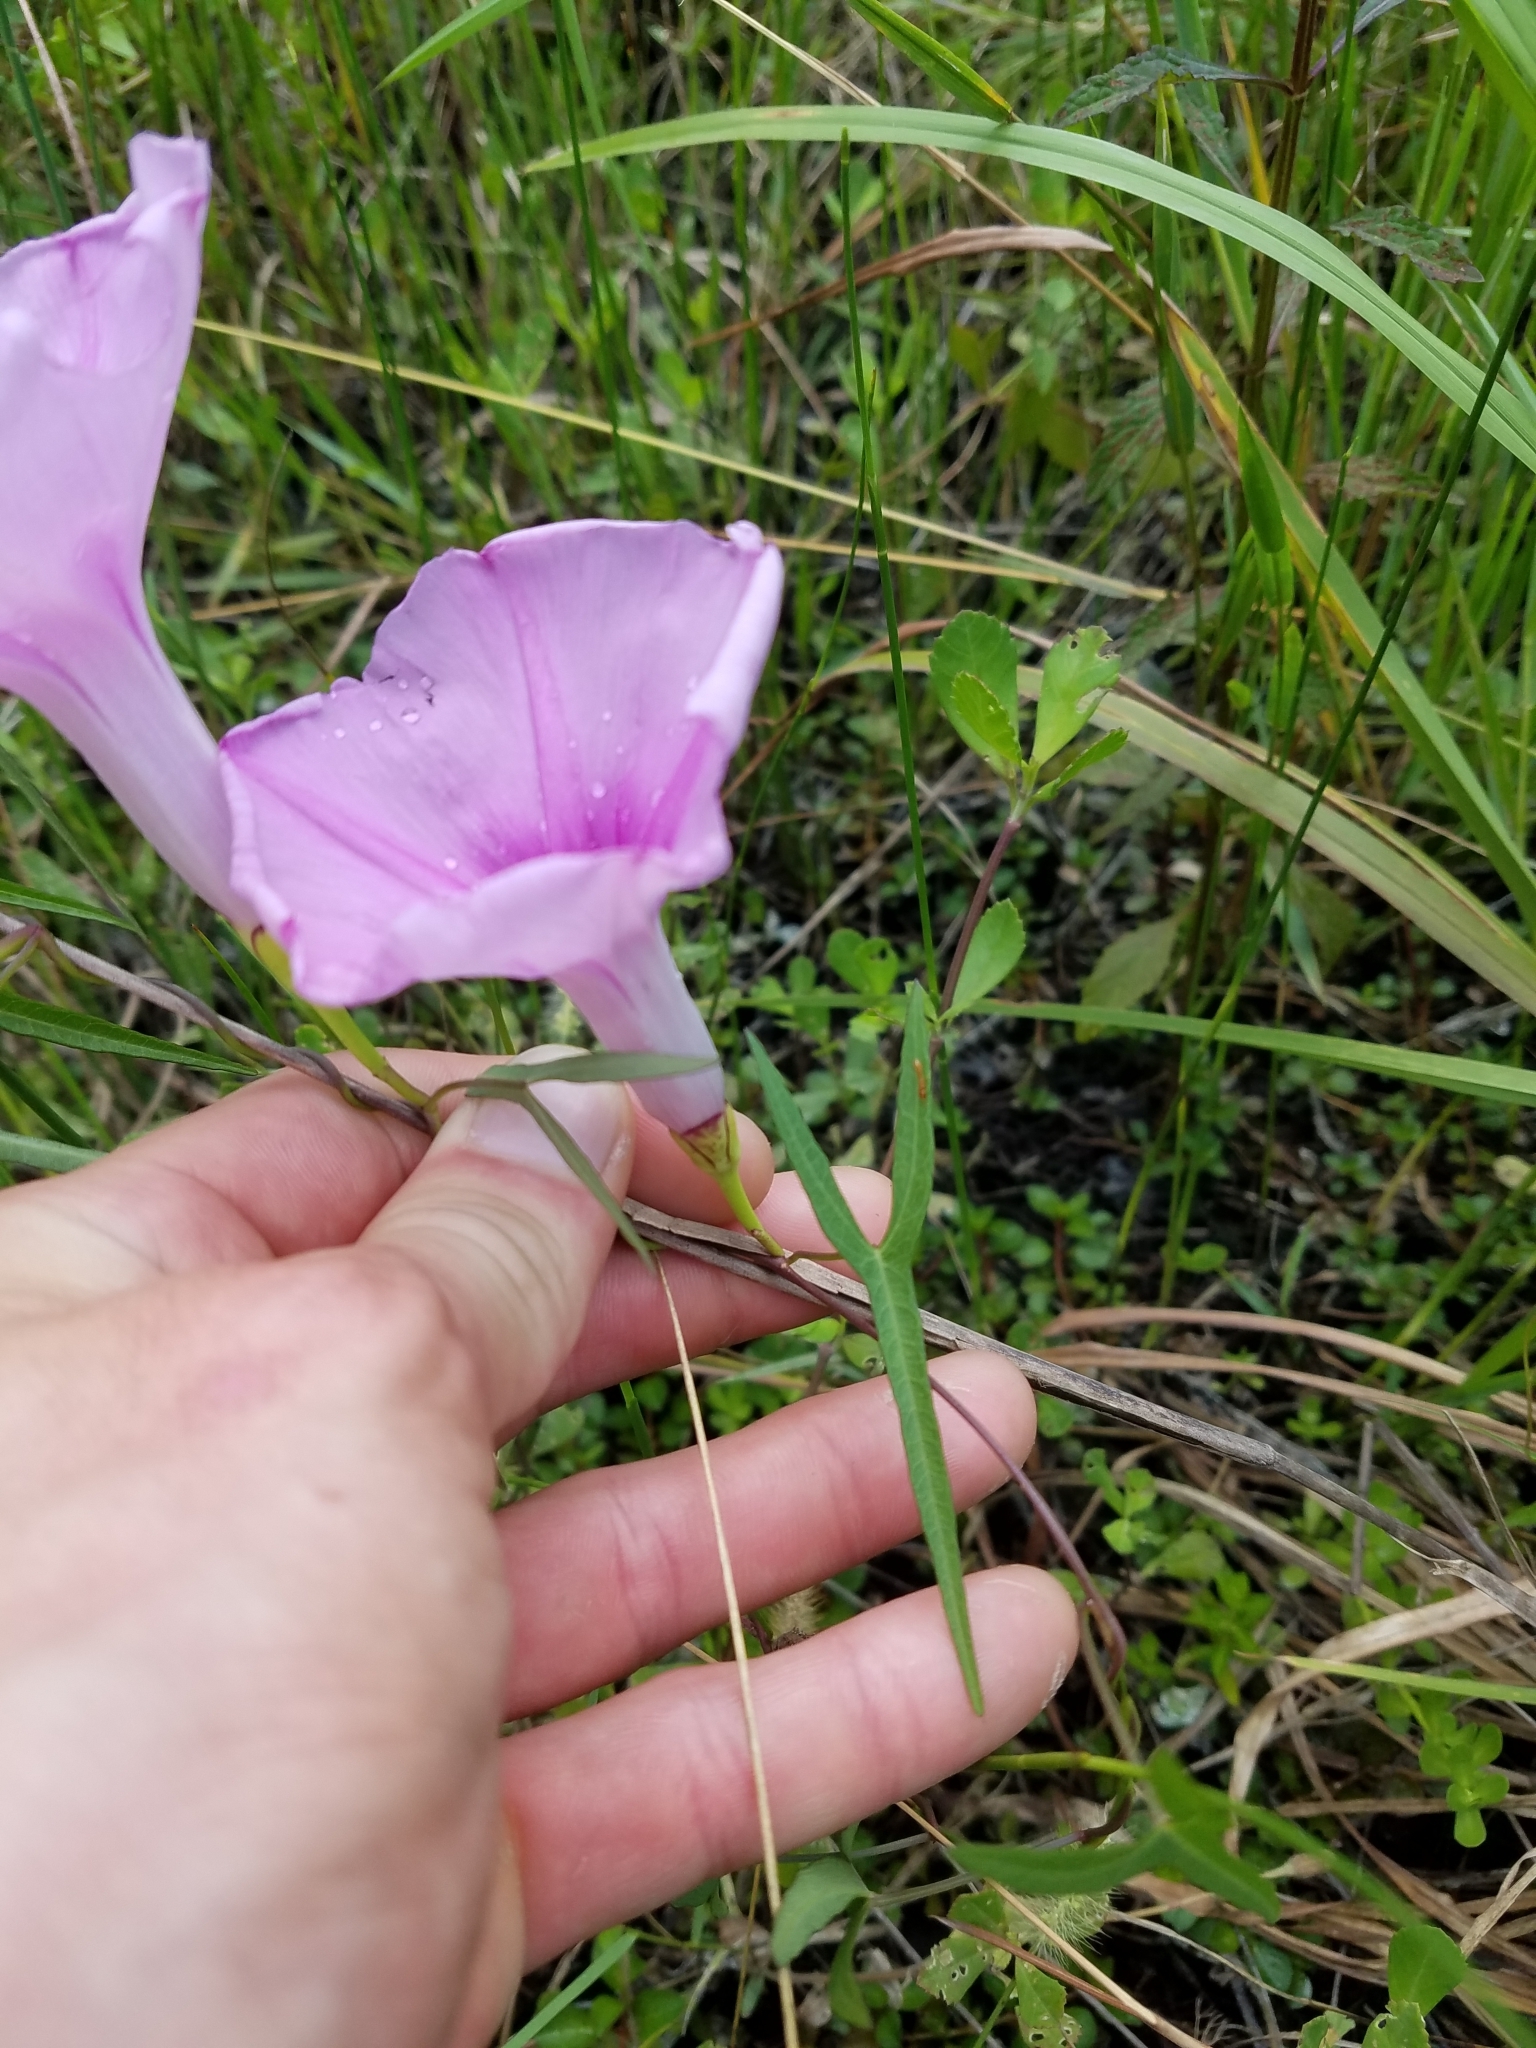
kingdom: Plantae
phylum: Tracheophyta
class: Magnoliopsida
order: Solanales
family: Convolvulaceae
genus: Ipomoea
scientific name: Ipomoea sagittata
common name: Saltmarsh morning glory
